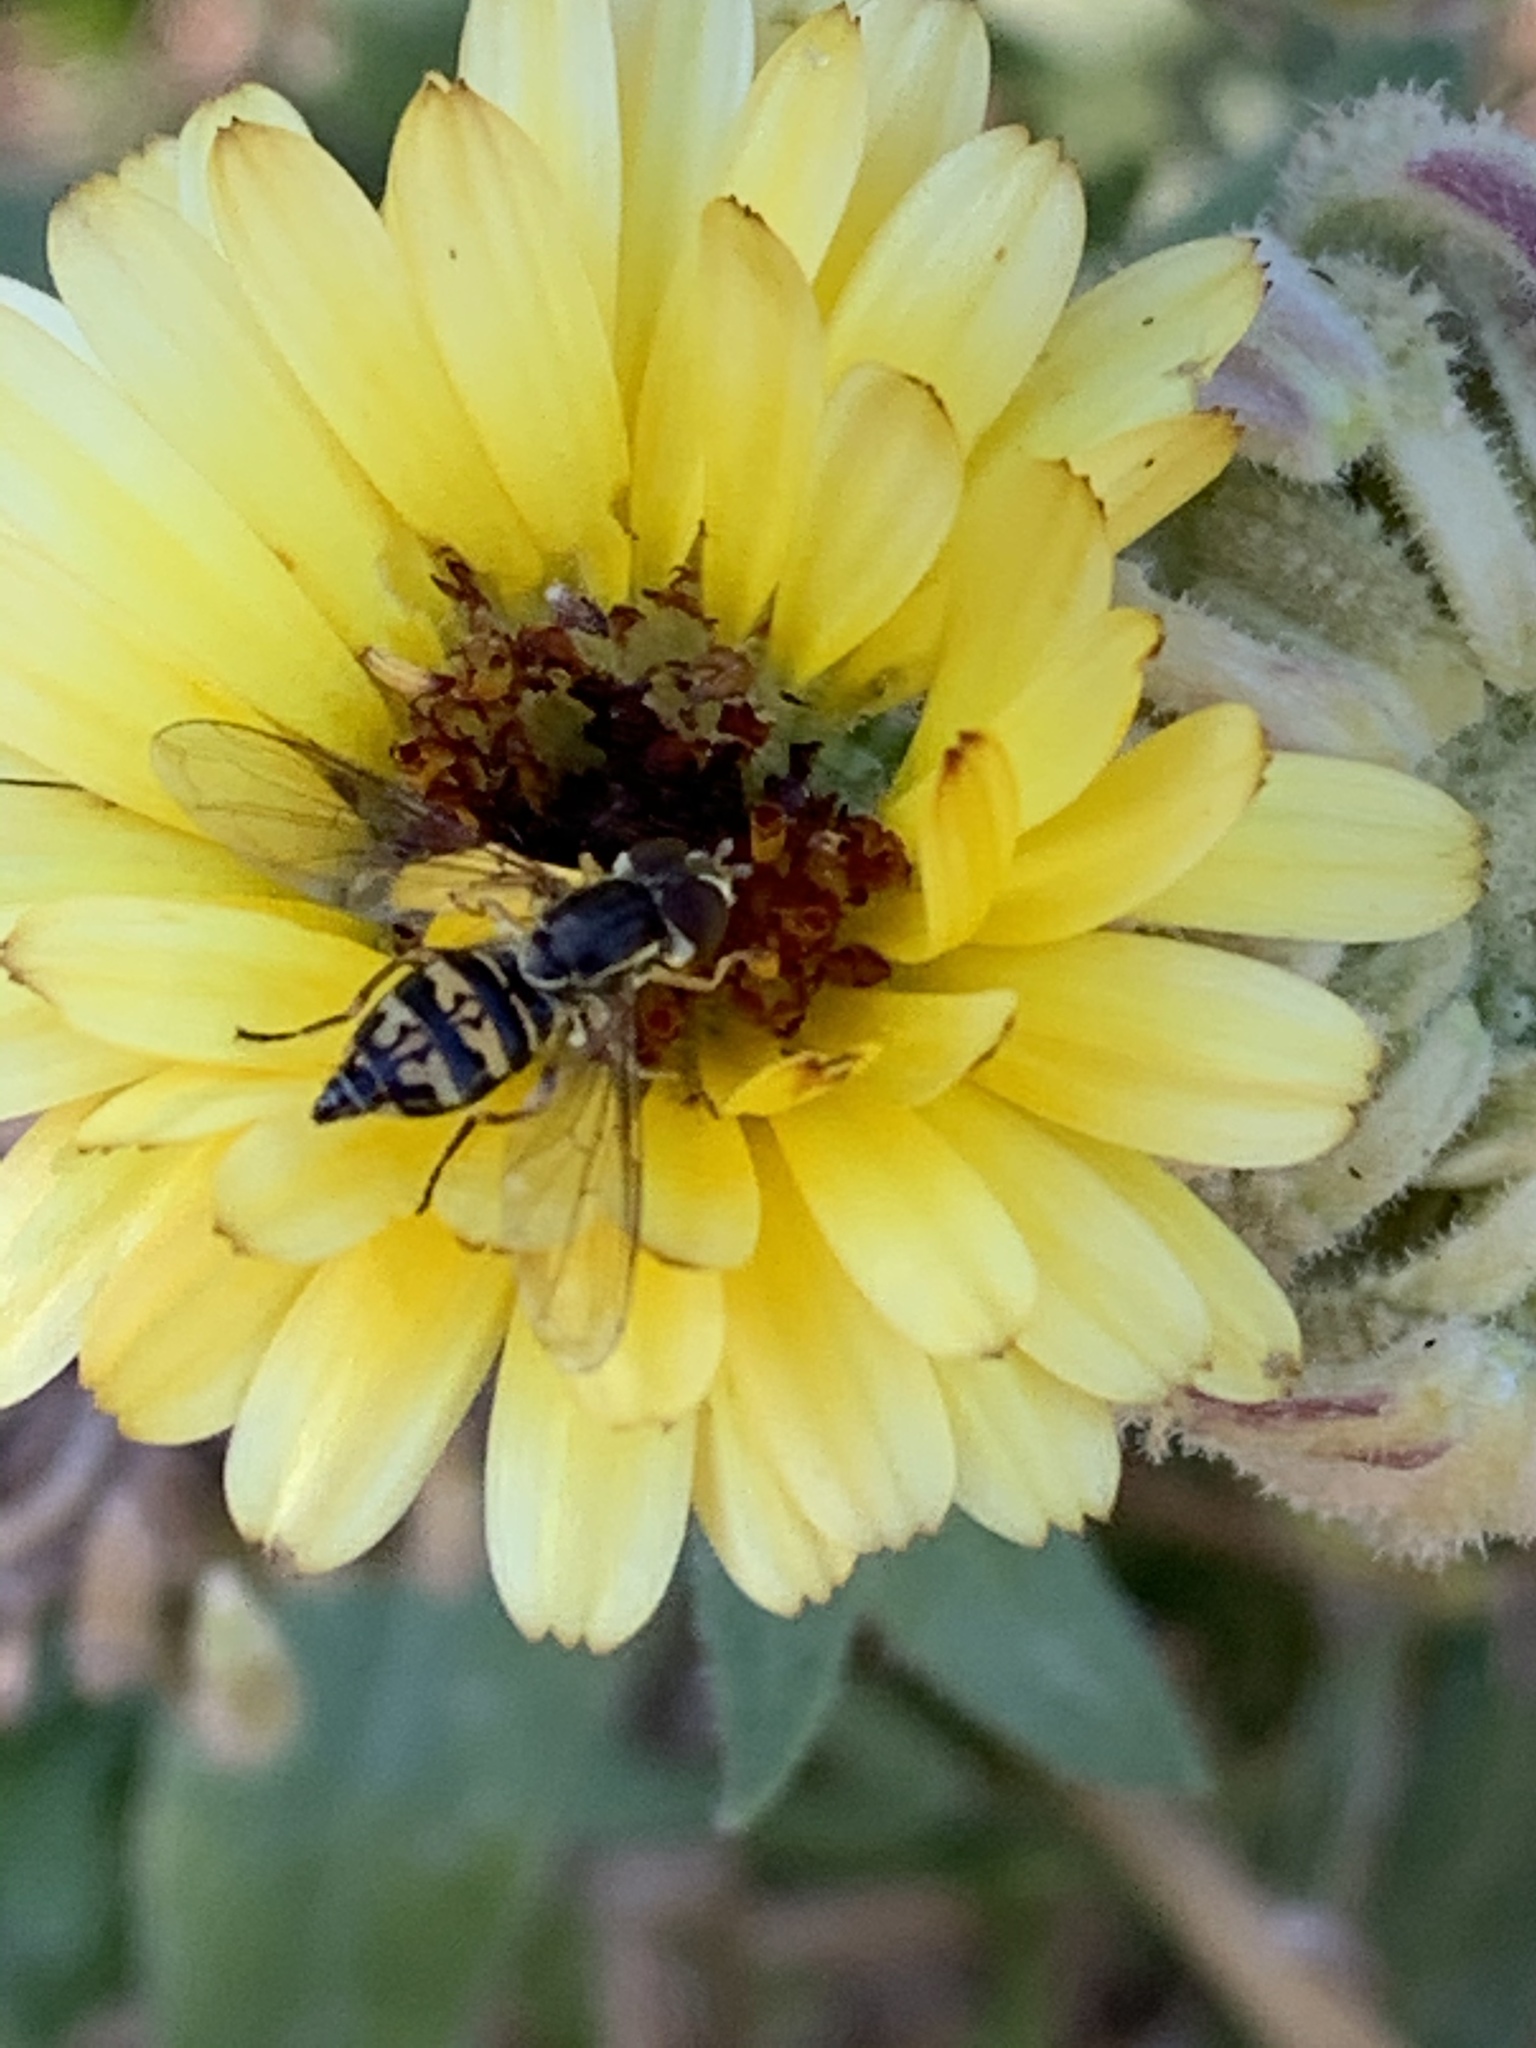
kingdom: Animalia
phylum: Arthropoda
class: Insecta
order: Diptera
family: Syrphidae
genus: Toxomerus
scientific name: Toxomerus occidentalis
